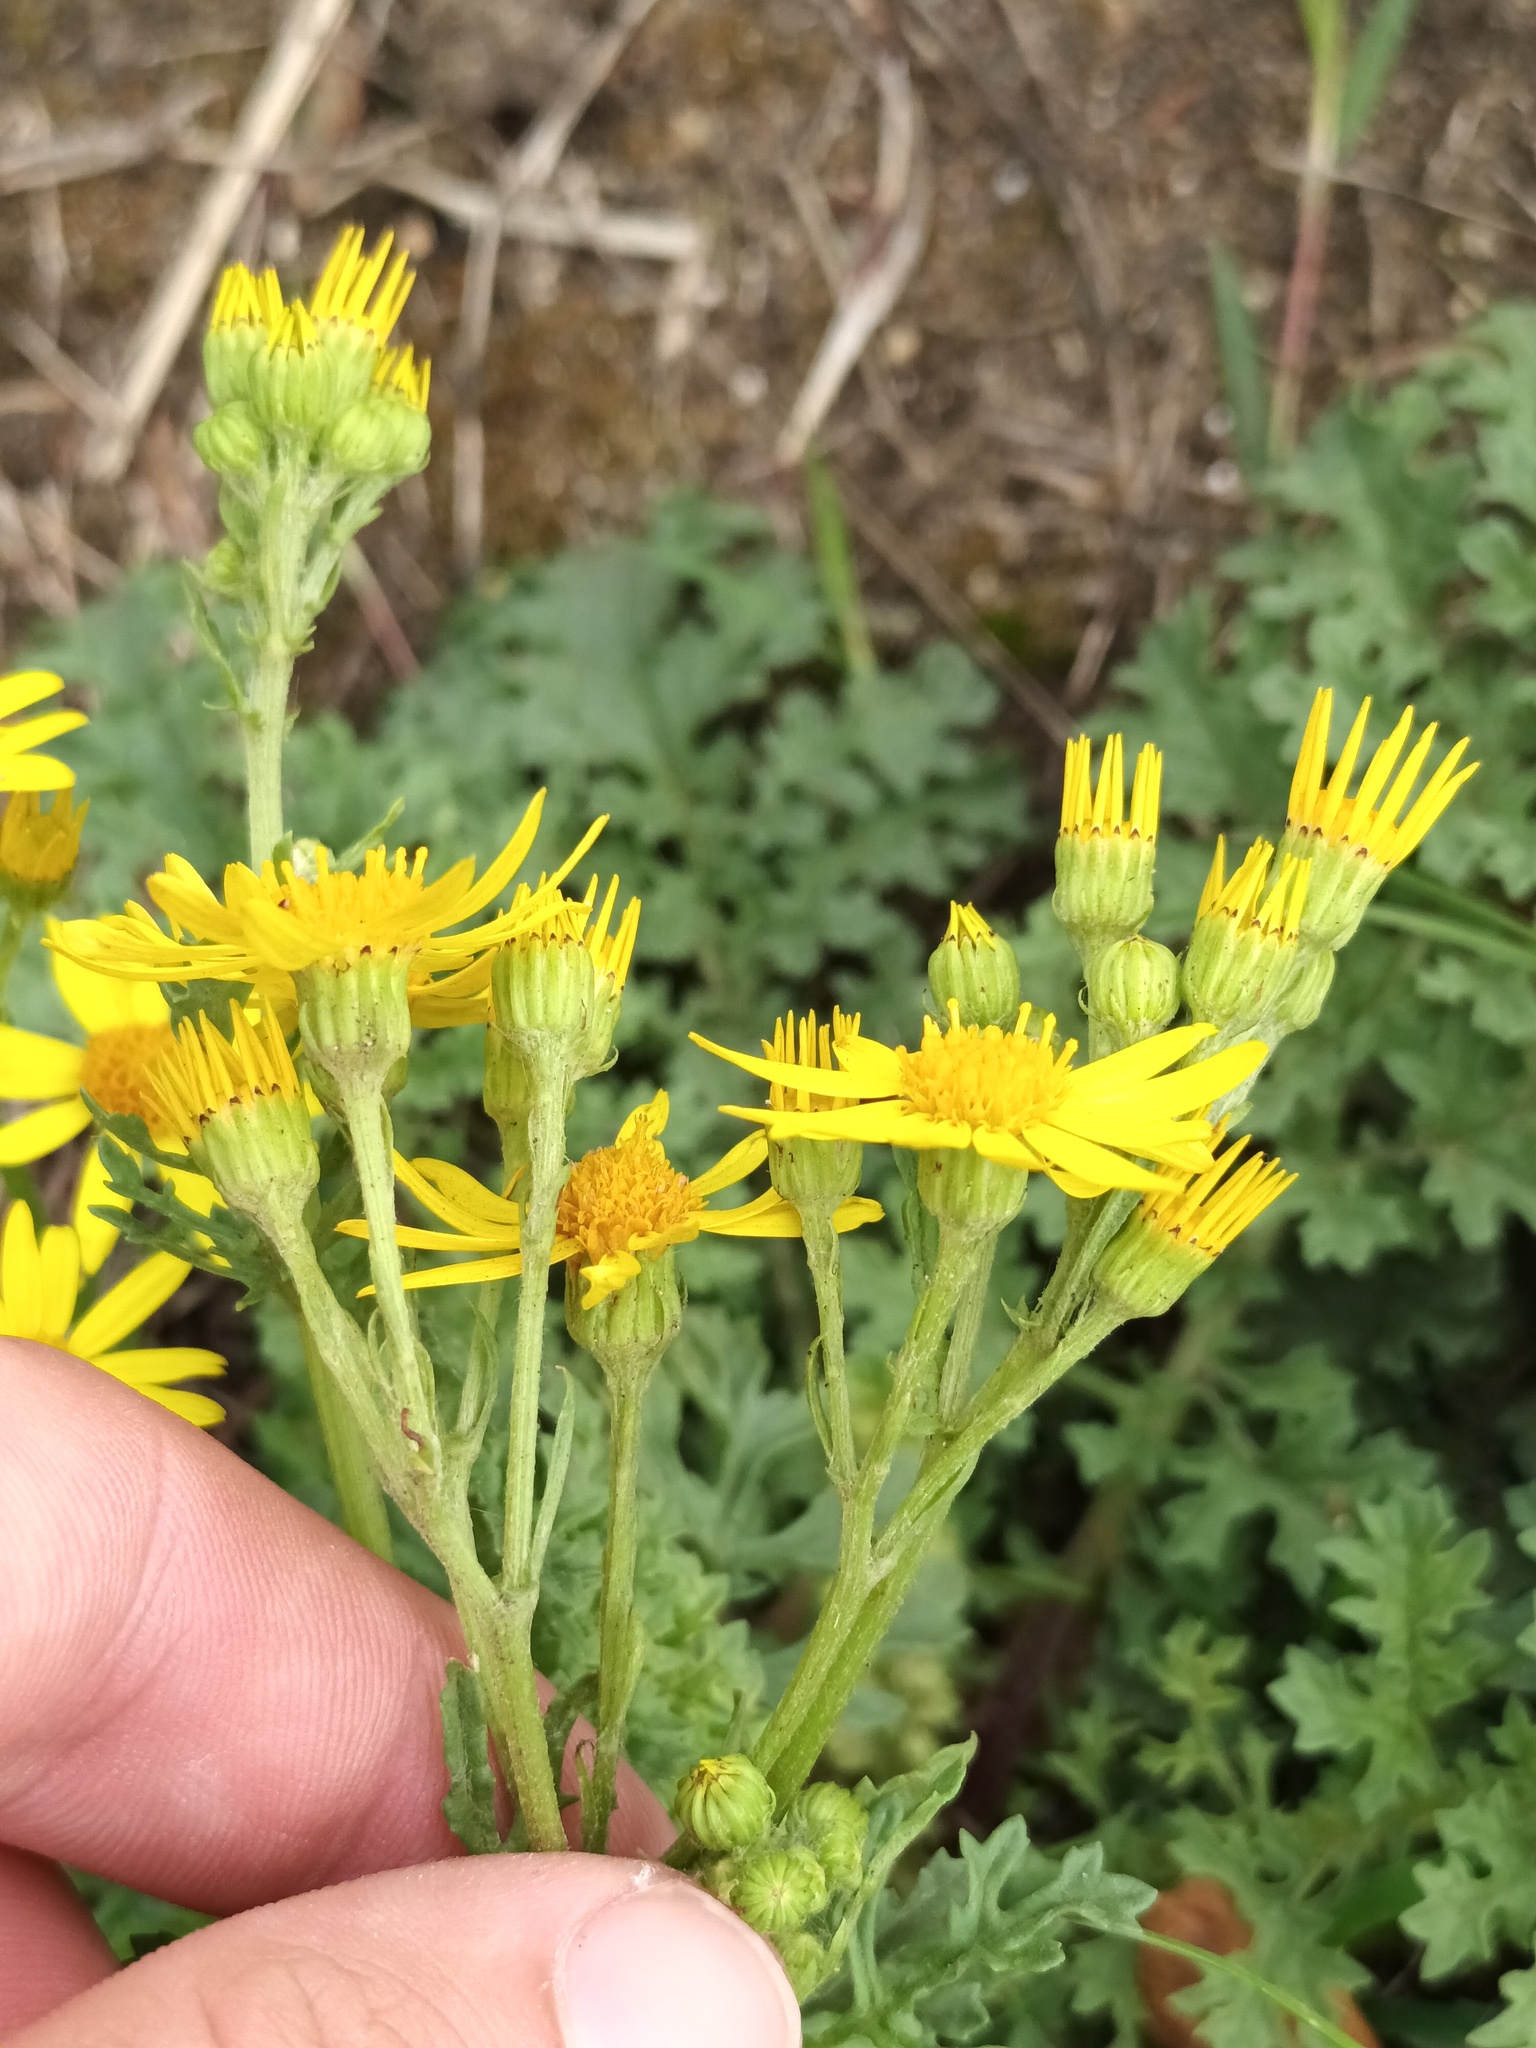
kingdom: Plantae
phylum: Tracheophyta
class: Magnoliopsida
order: Asterales
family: Asteraceae
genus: Jacobaea
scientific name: Jacobaea vulgaris
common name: Stinking willie
